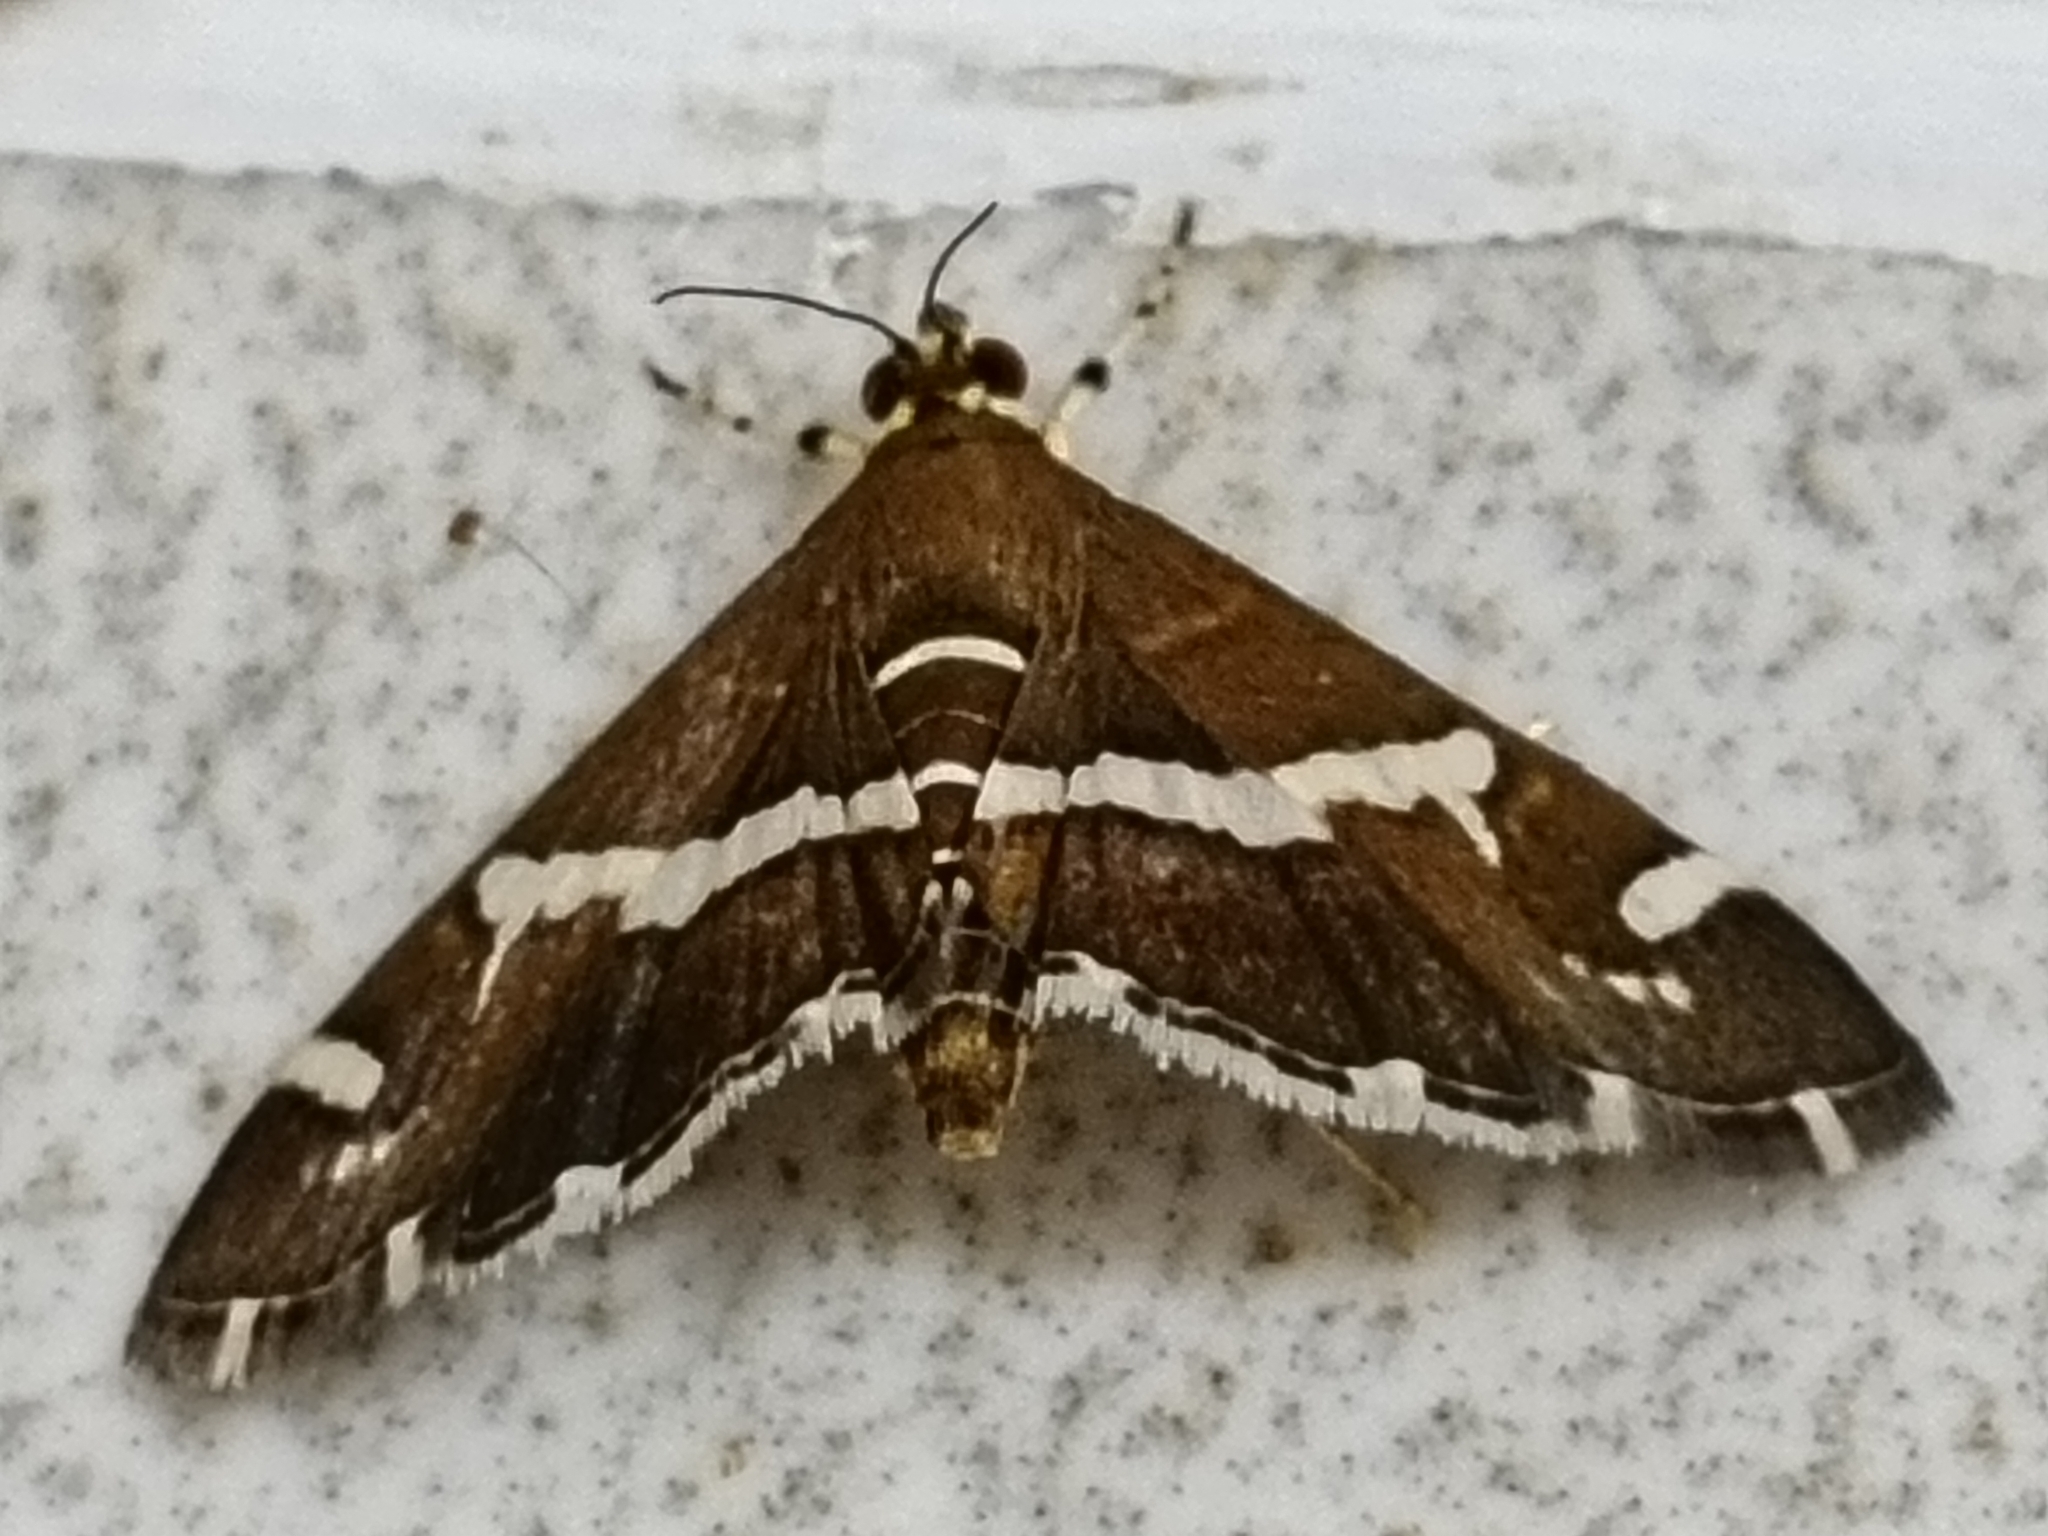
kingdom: Animalia
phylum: Arthropoda
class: Insecta
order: Lepidoptera
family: Crambidae
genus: Spoladea
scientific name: Spoladea recurvalis
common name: Beet webworm moth
